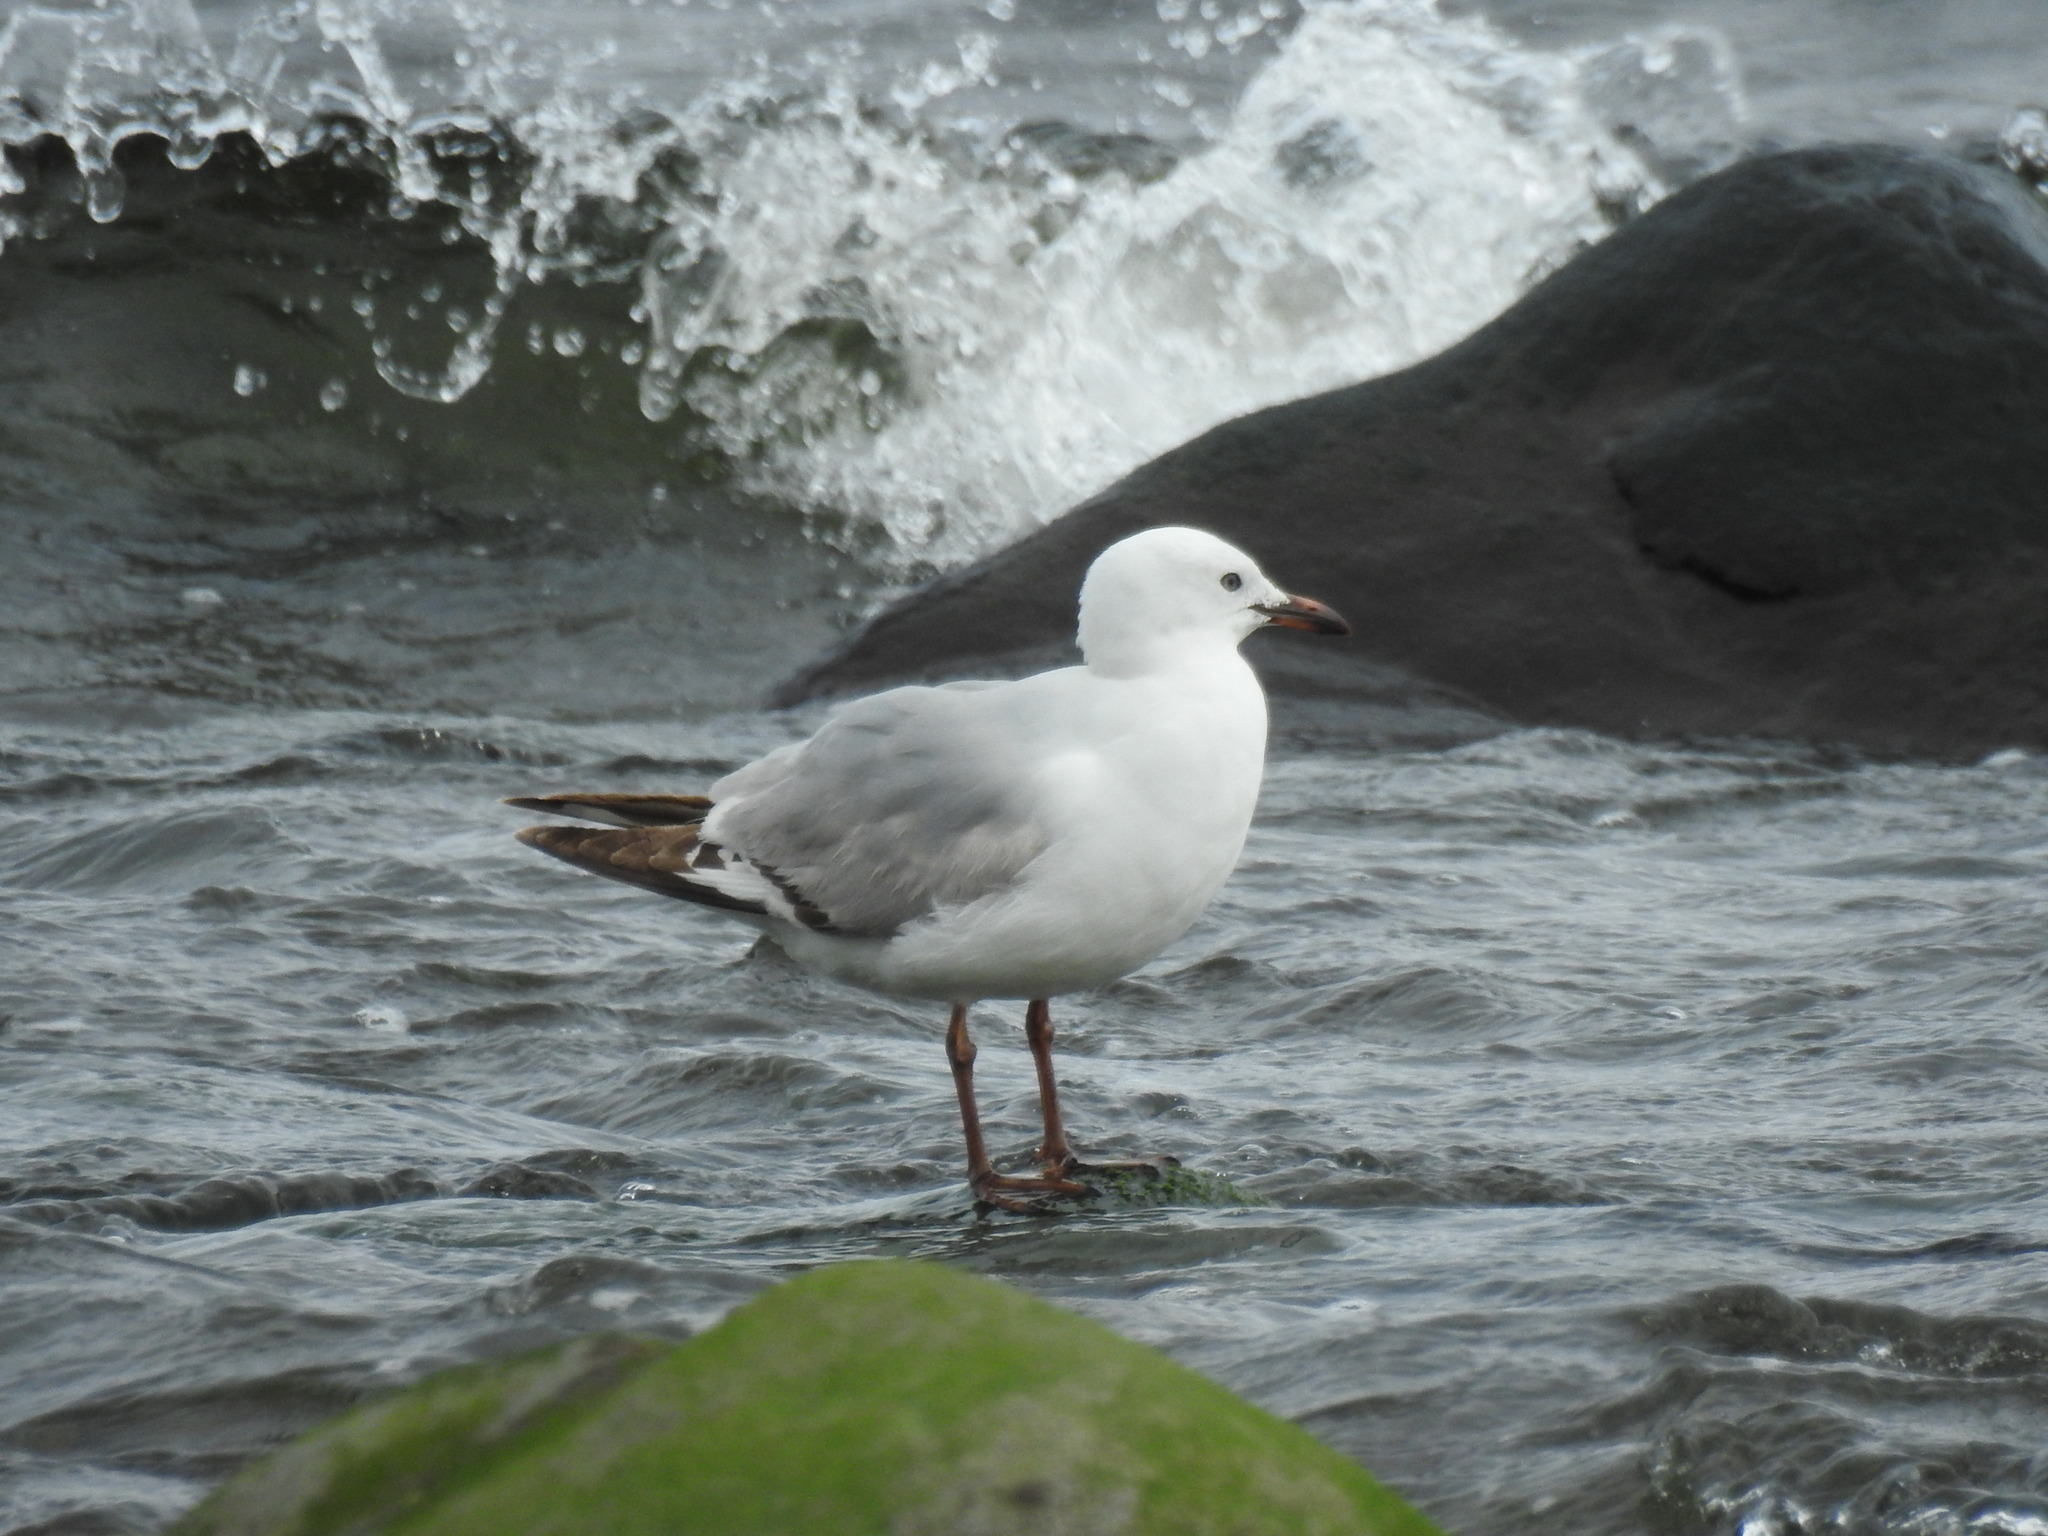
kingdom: Animalia
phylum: Chordata
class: Aves
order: Charadriiformes
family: Laridae
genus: Chroicocephalus
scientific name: Chroicocephalus novaehollandiae
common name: Silver gull
